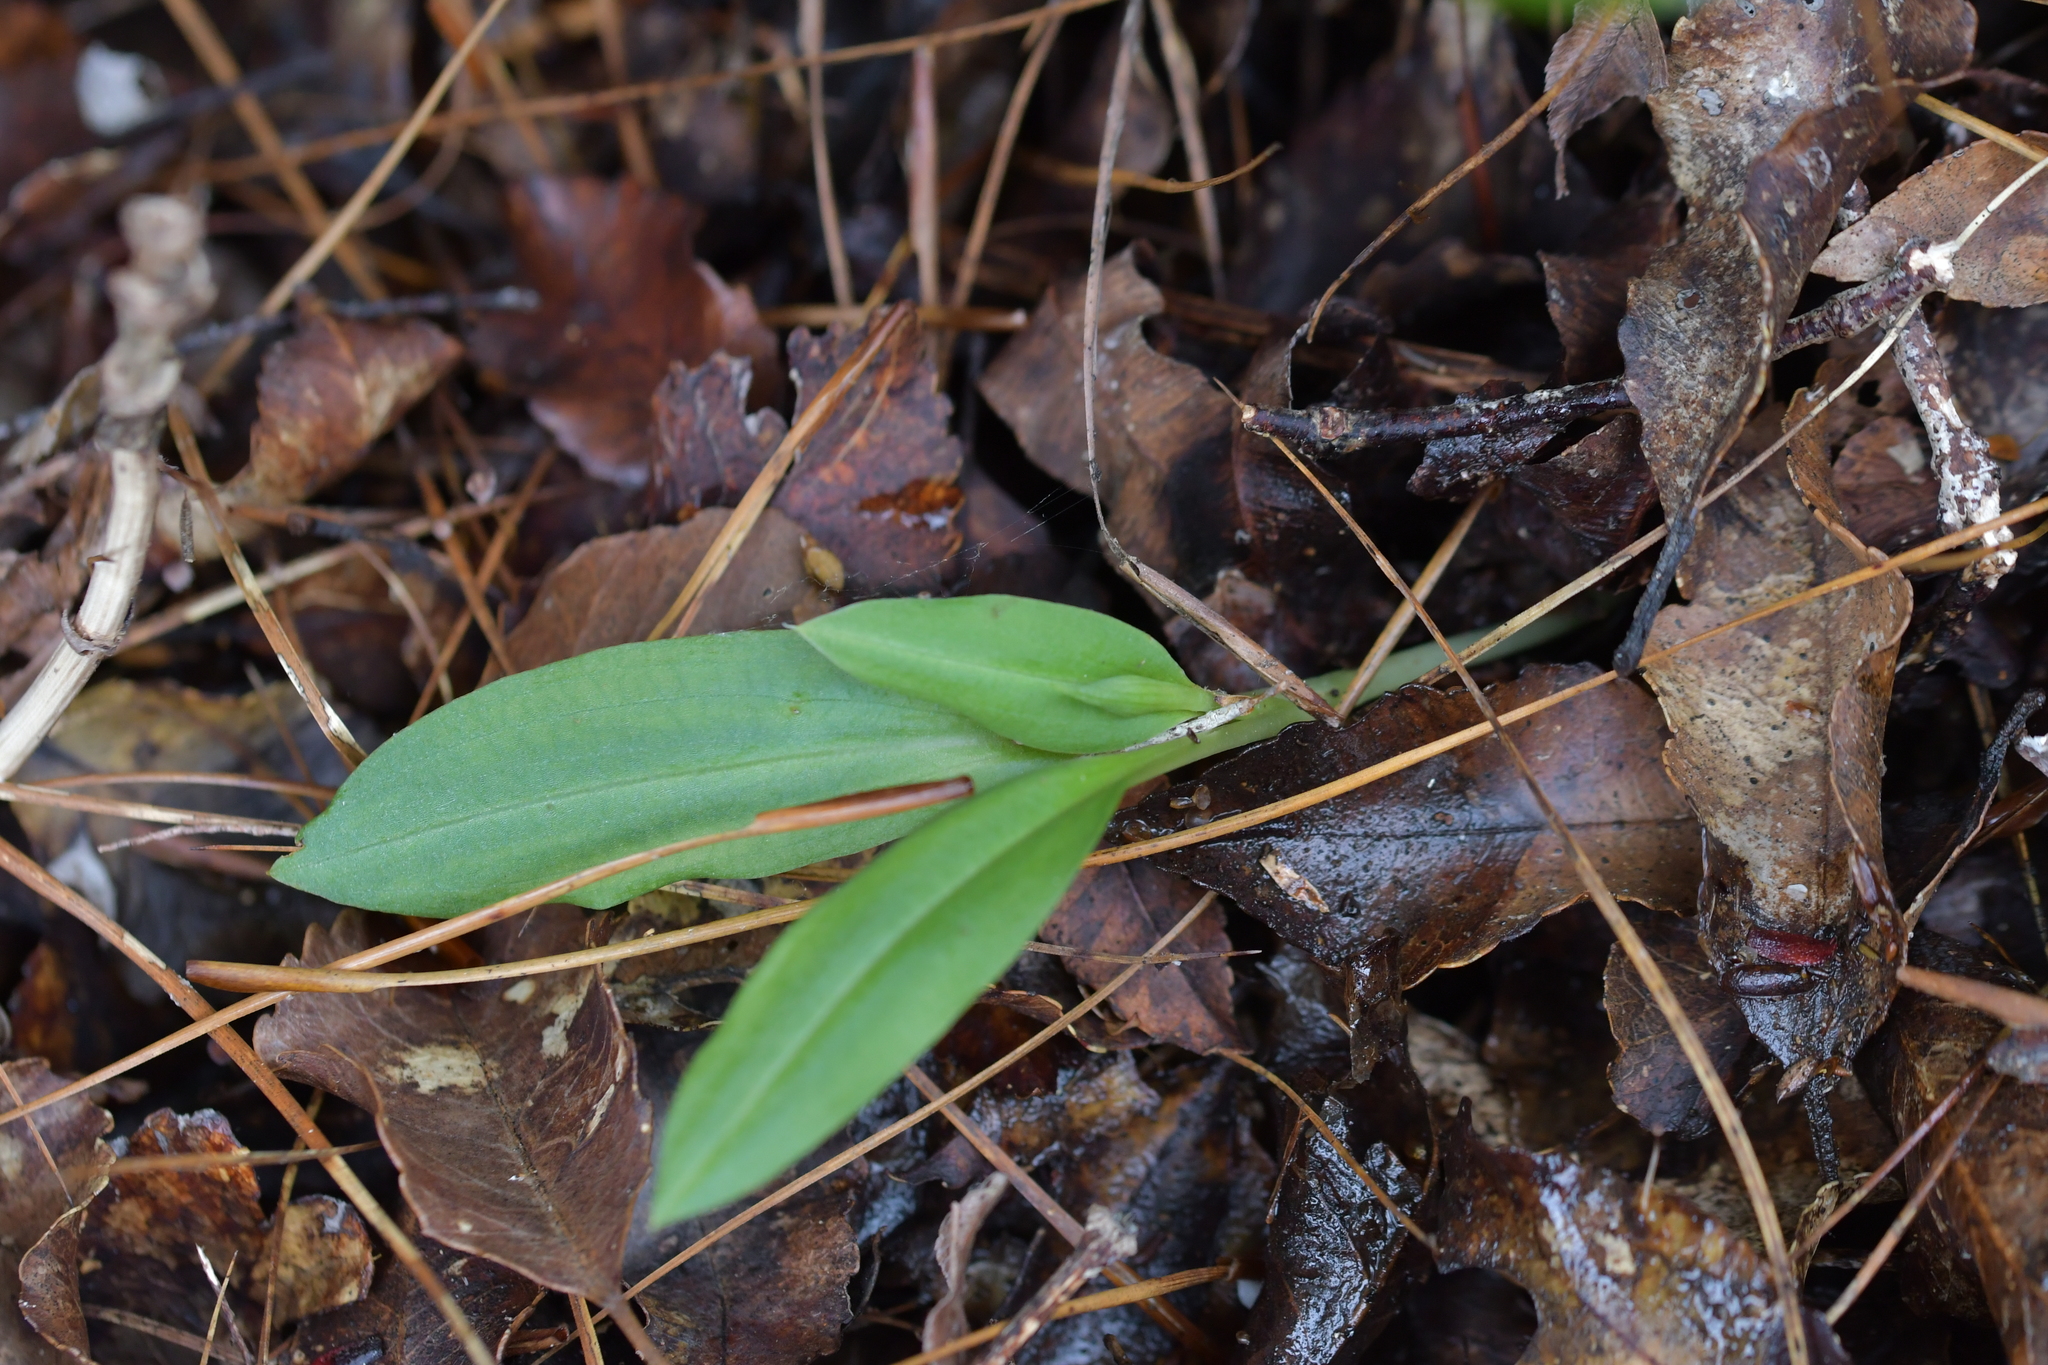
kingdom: Plantae
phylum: Tracheophyta
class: Liliopsida
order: Asparagales
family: Orchidaceae
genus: Chiloglottis
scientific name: Chiloglottis cornuta
